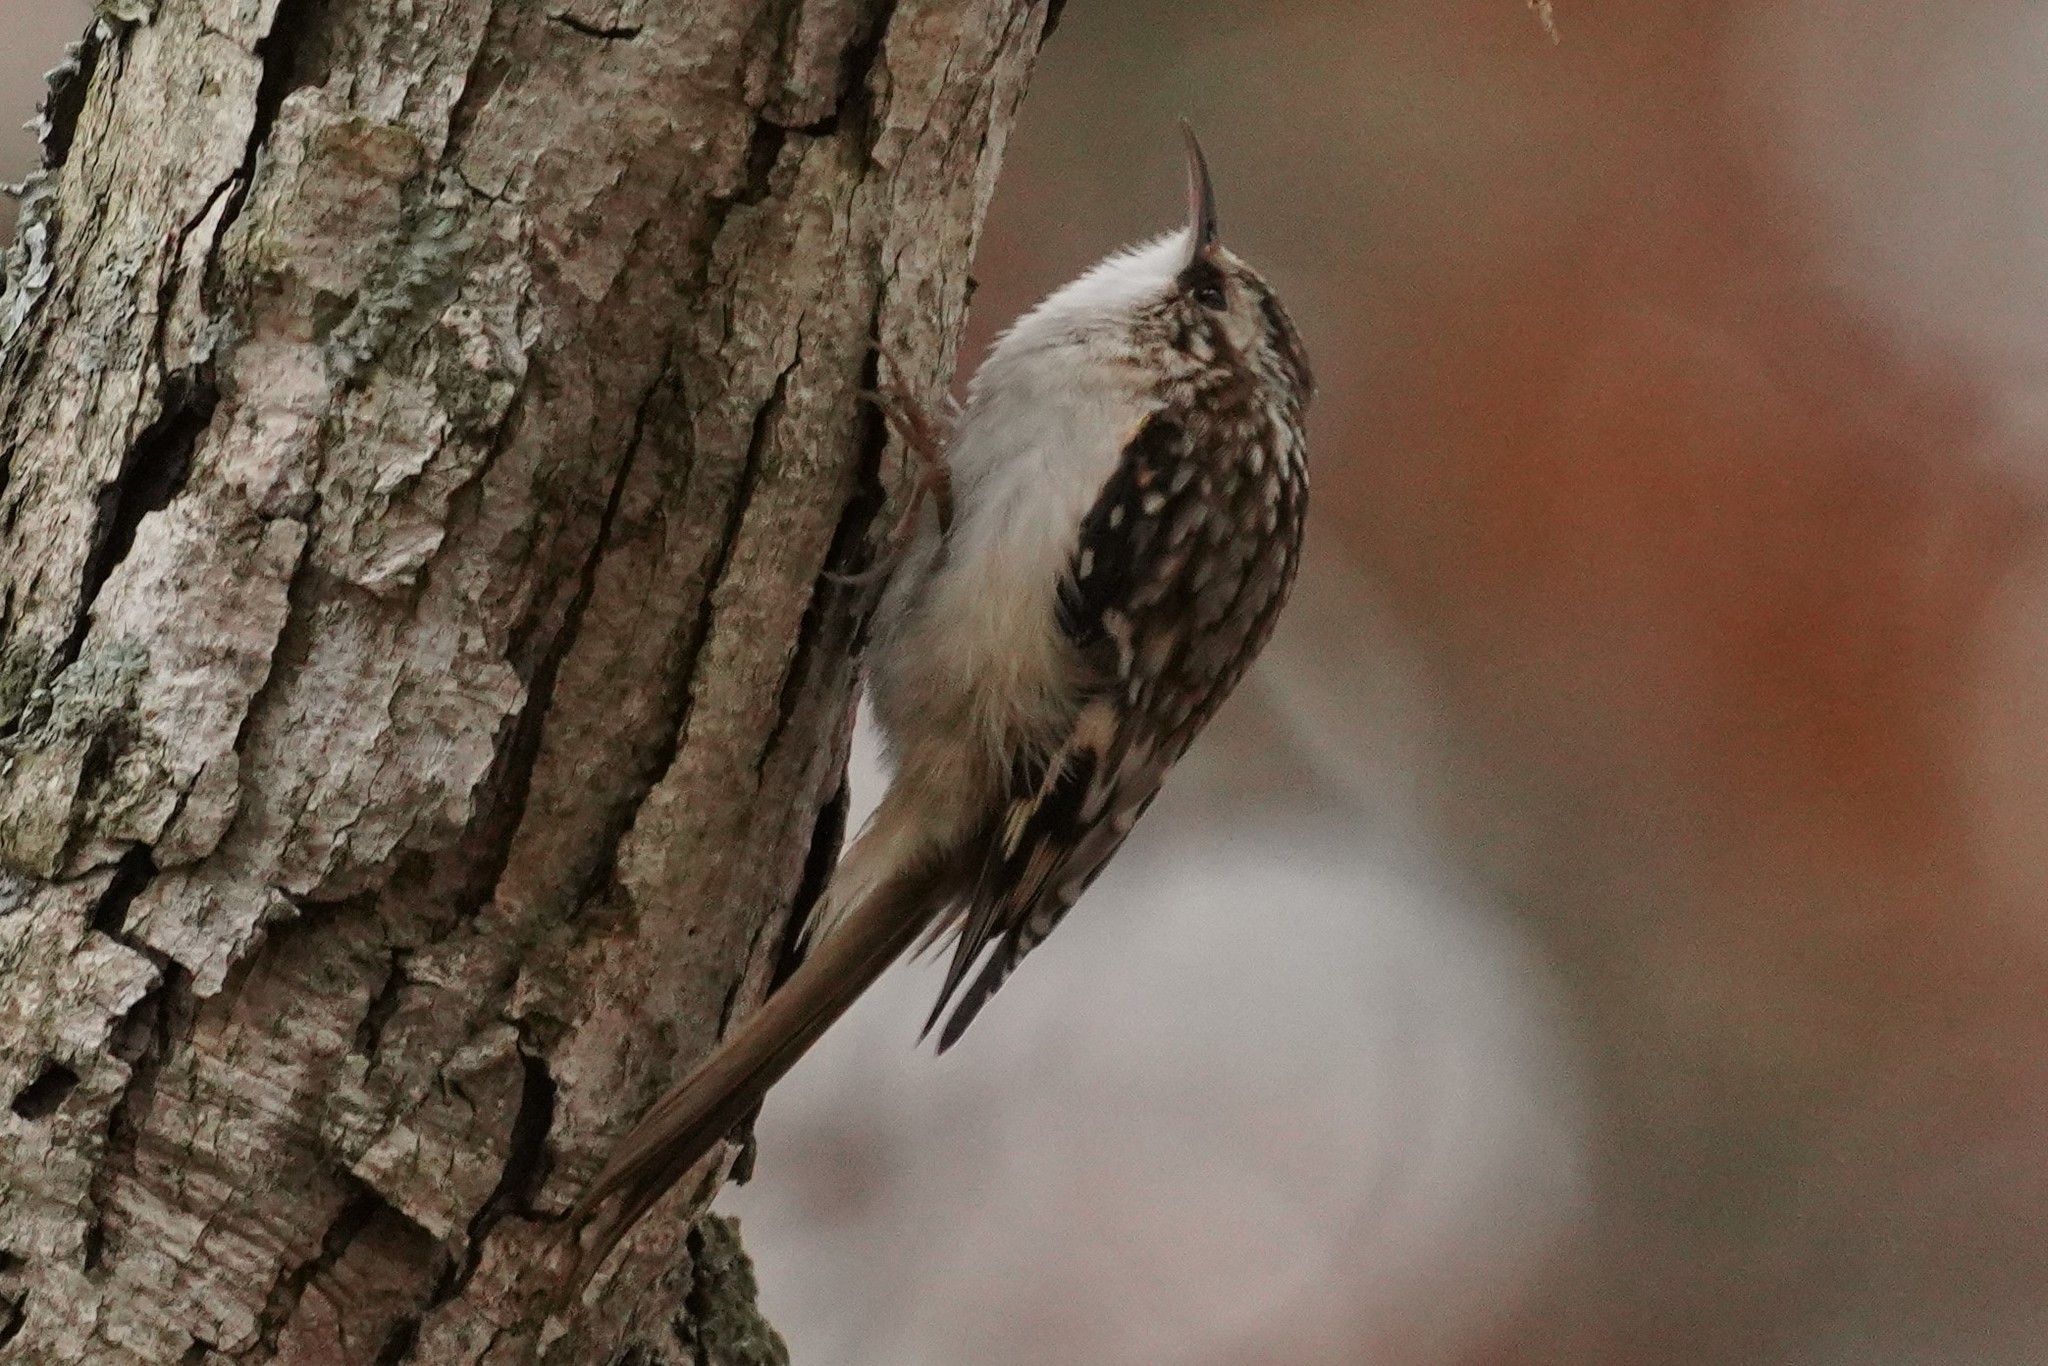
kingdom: Animalia
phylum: Chordata
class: Aves
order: Passeriformes
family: Certhiidae
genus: Certhia
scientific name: Certhia americana
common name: Brown creeper
